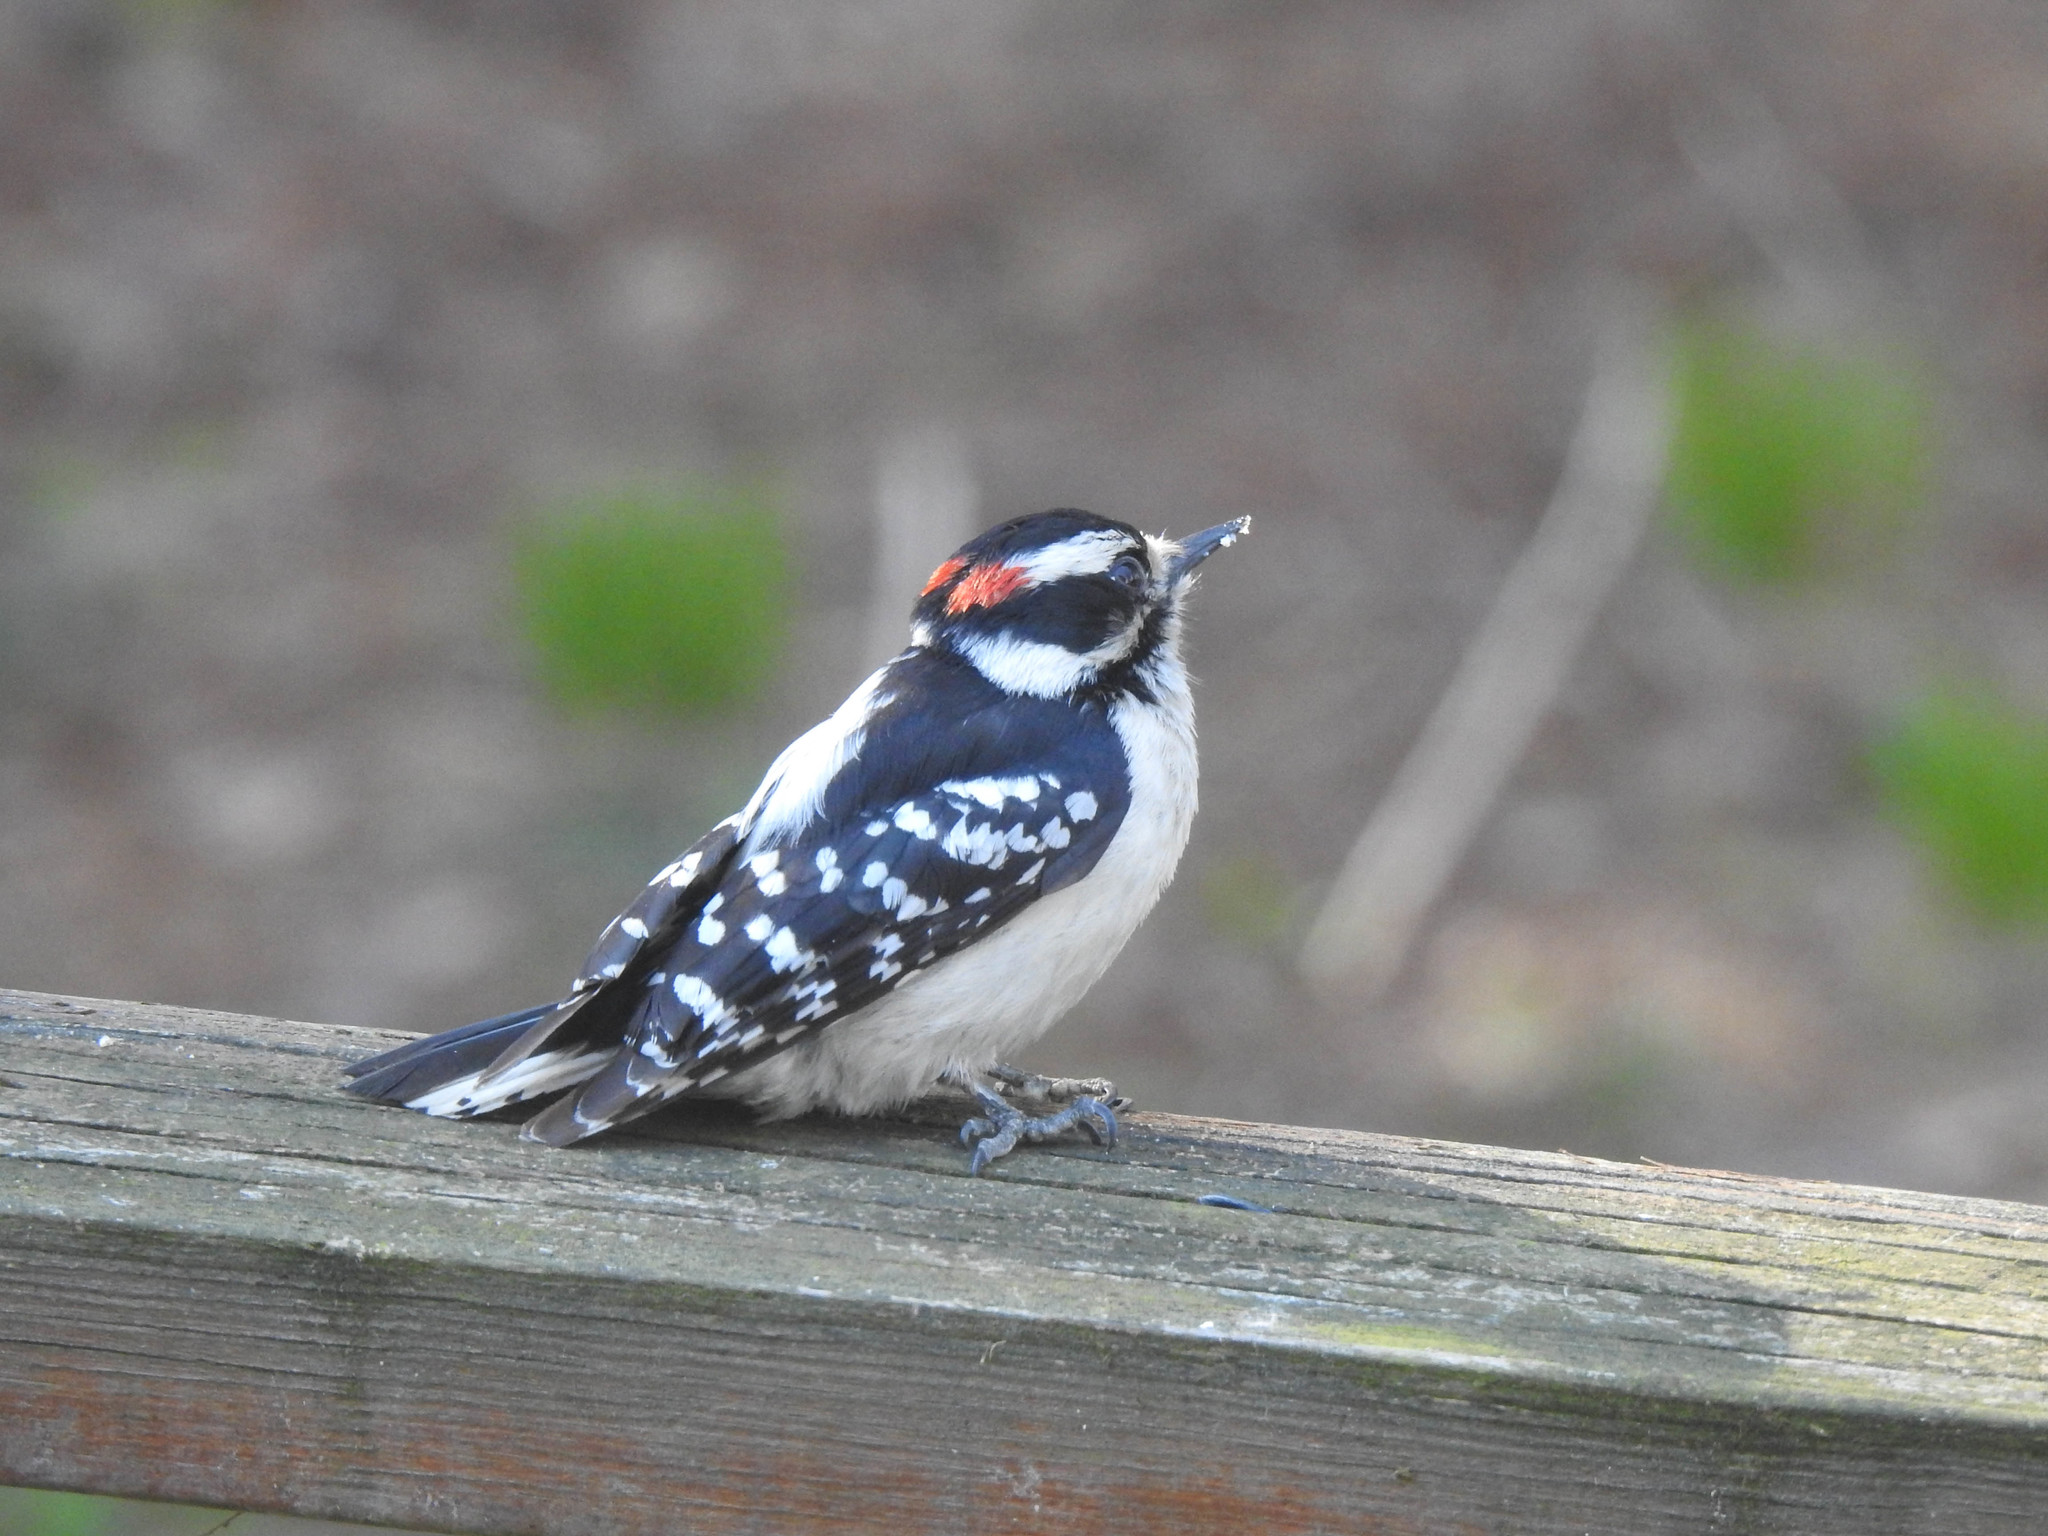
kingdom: Animalia
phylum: Chordata
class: Aves
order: Piciformes
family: Picidae
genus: Dryobates
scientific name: Dryobates pubescens
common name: Downy woodpecker
